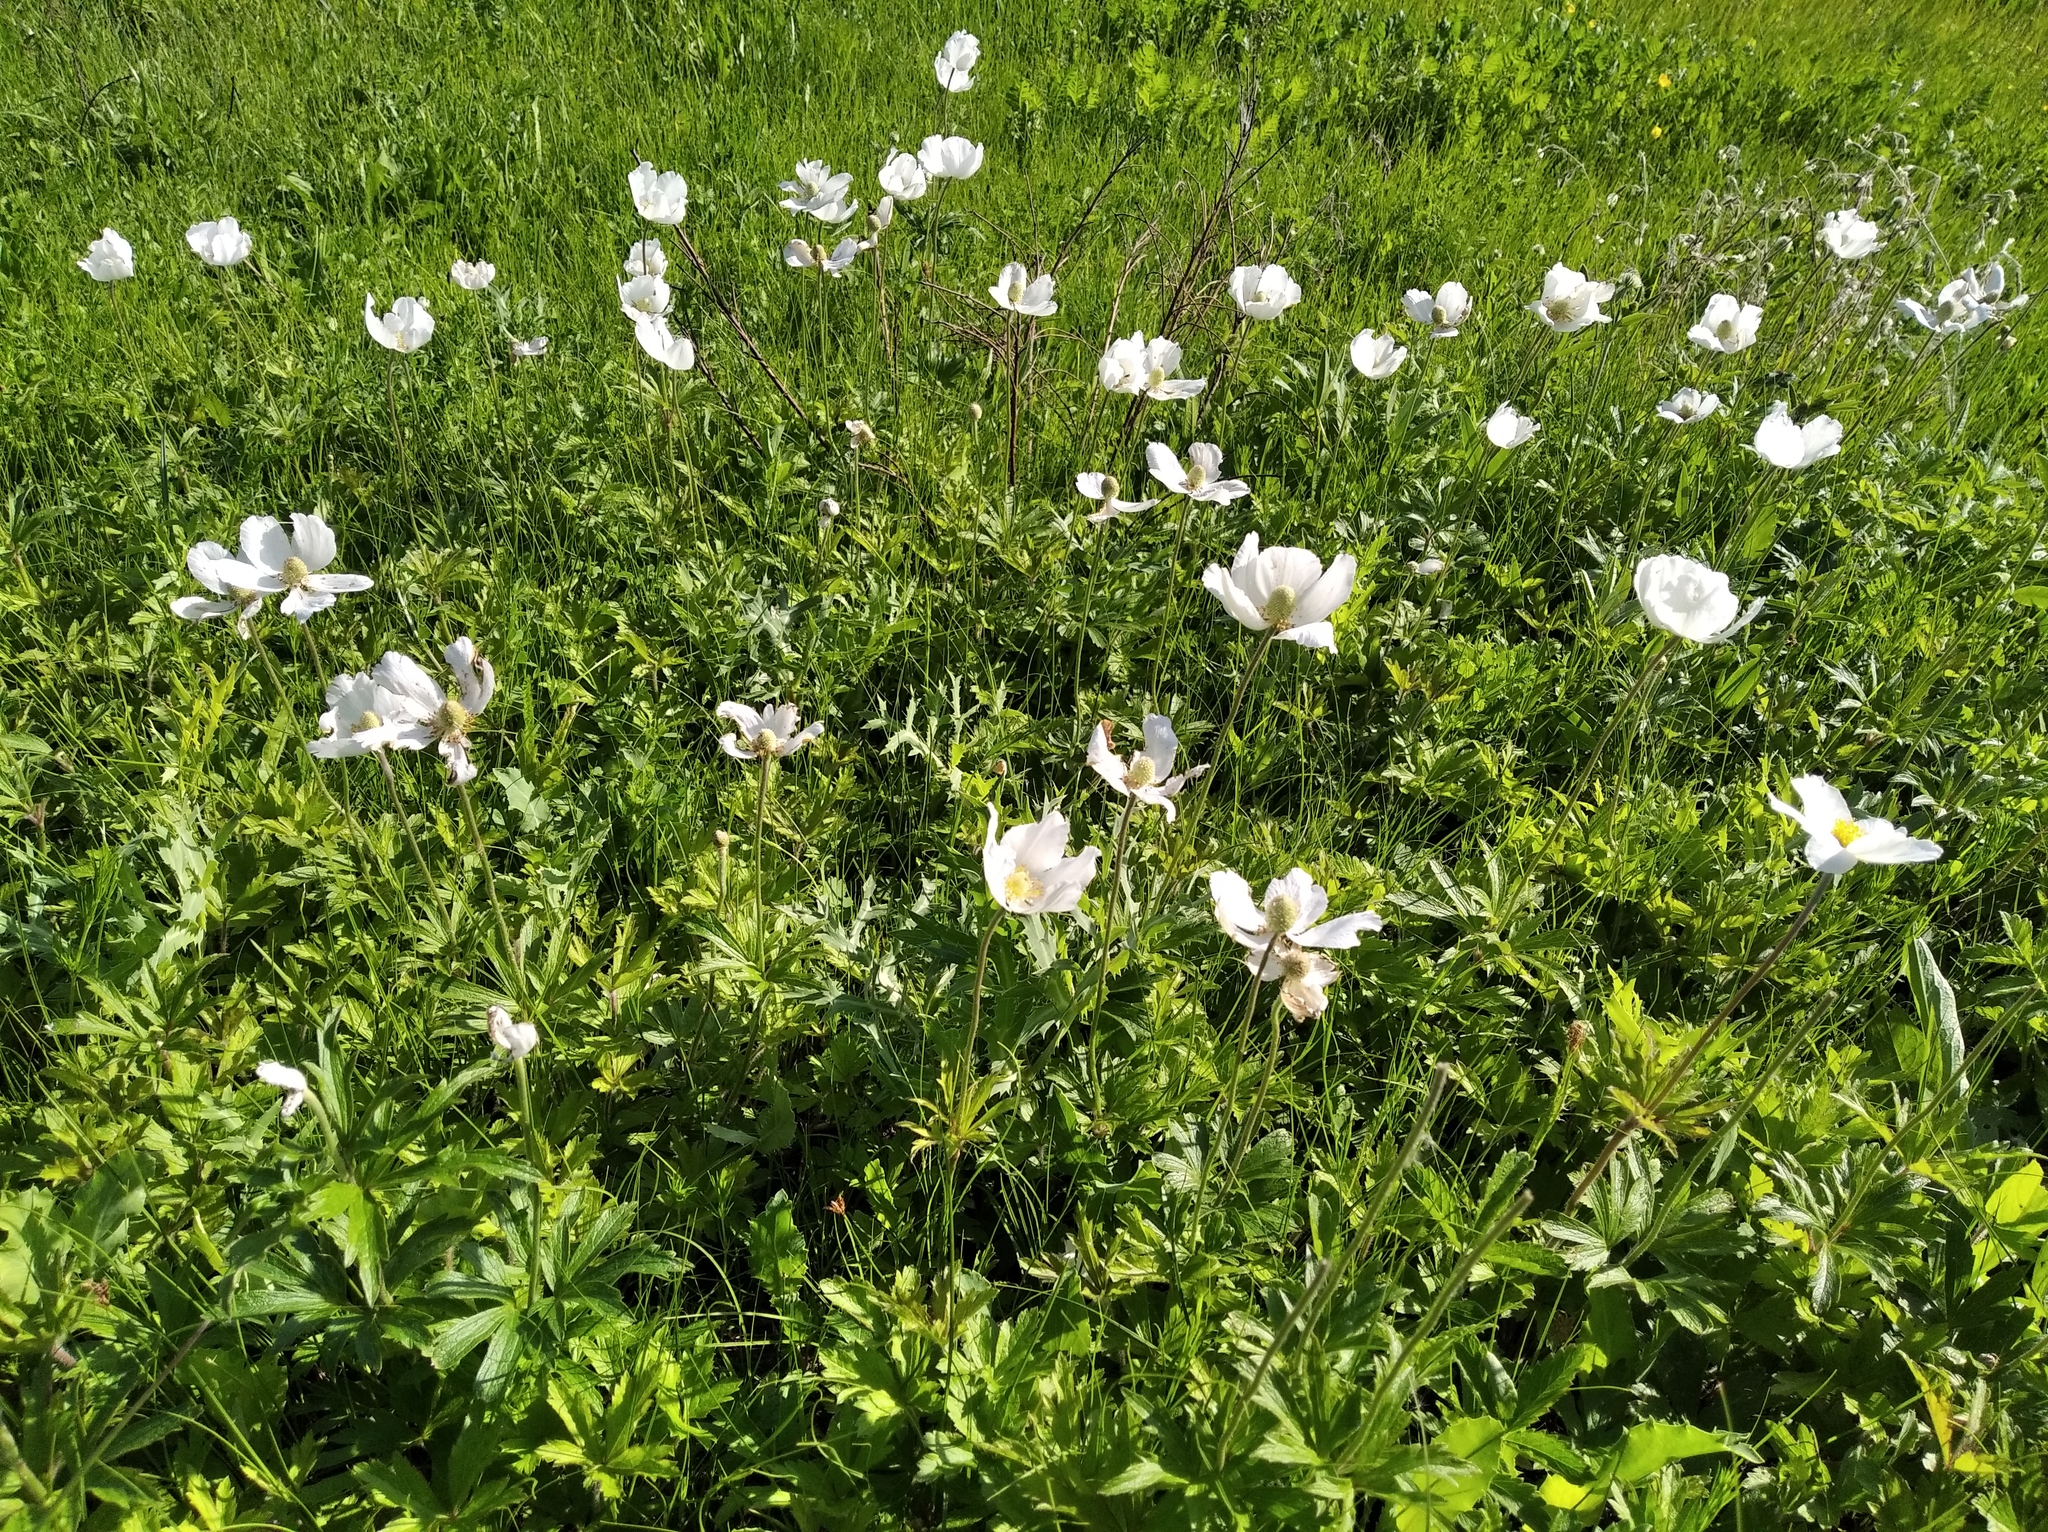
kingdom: Plantae
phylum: Tracheophyta
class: Magnoliopsida
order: Ranunculales
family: Ranunculaceae
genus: Anemone
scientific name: Anemone sylvestris
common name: Snowdrop anemone
